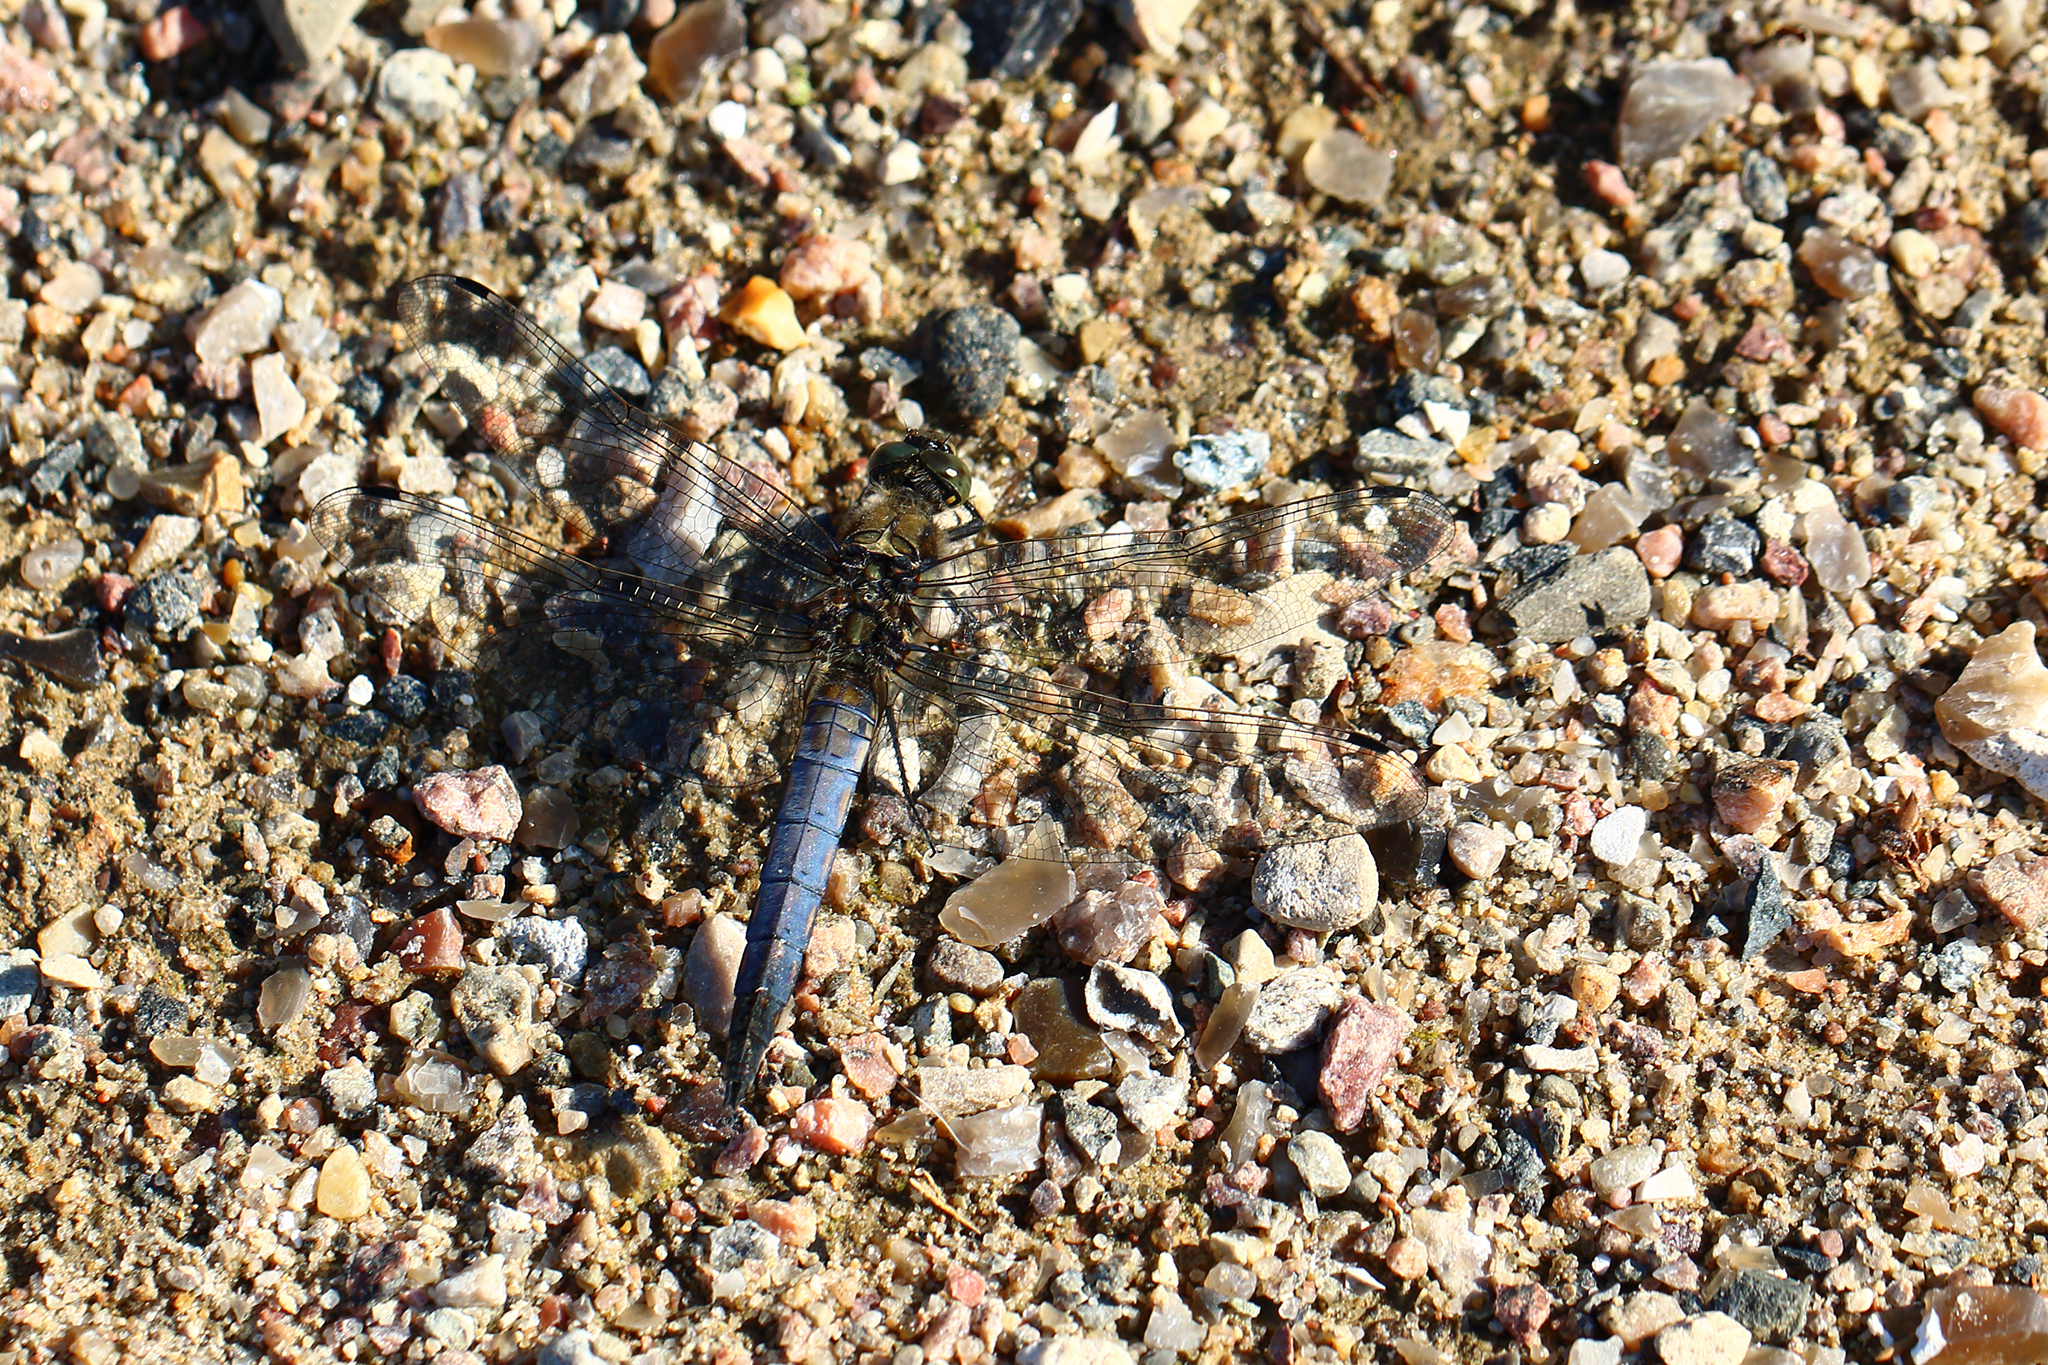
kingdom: Animalia
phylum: Arthropoda
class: Insecta
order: Odonata
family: Libellulidae
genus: Orthetrum
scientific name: Orthetrum cancellatum
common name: Black-tailed skimmer
